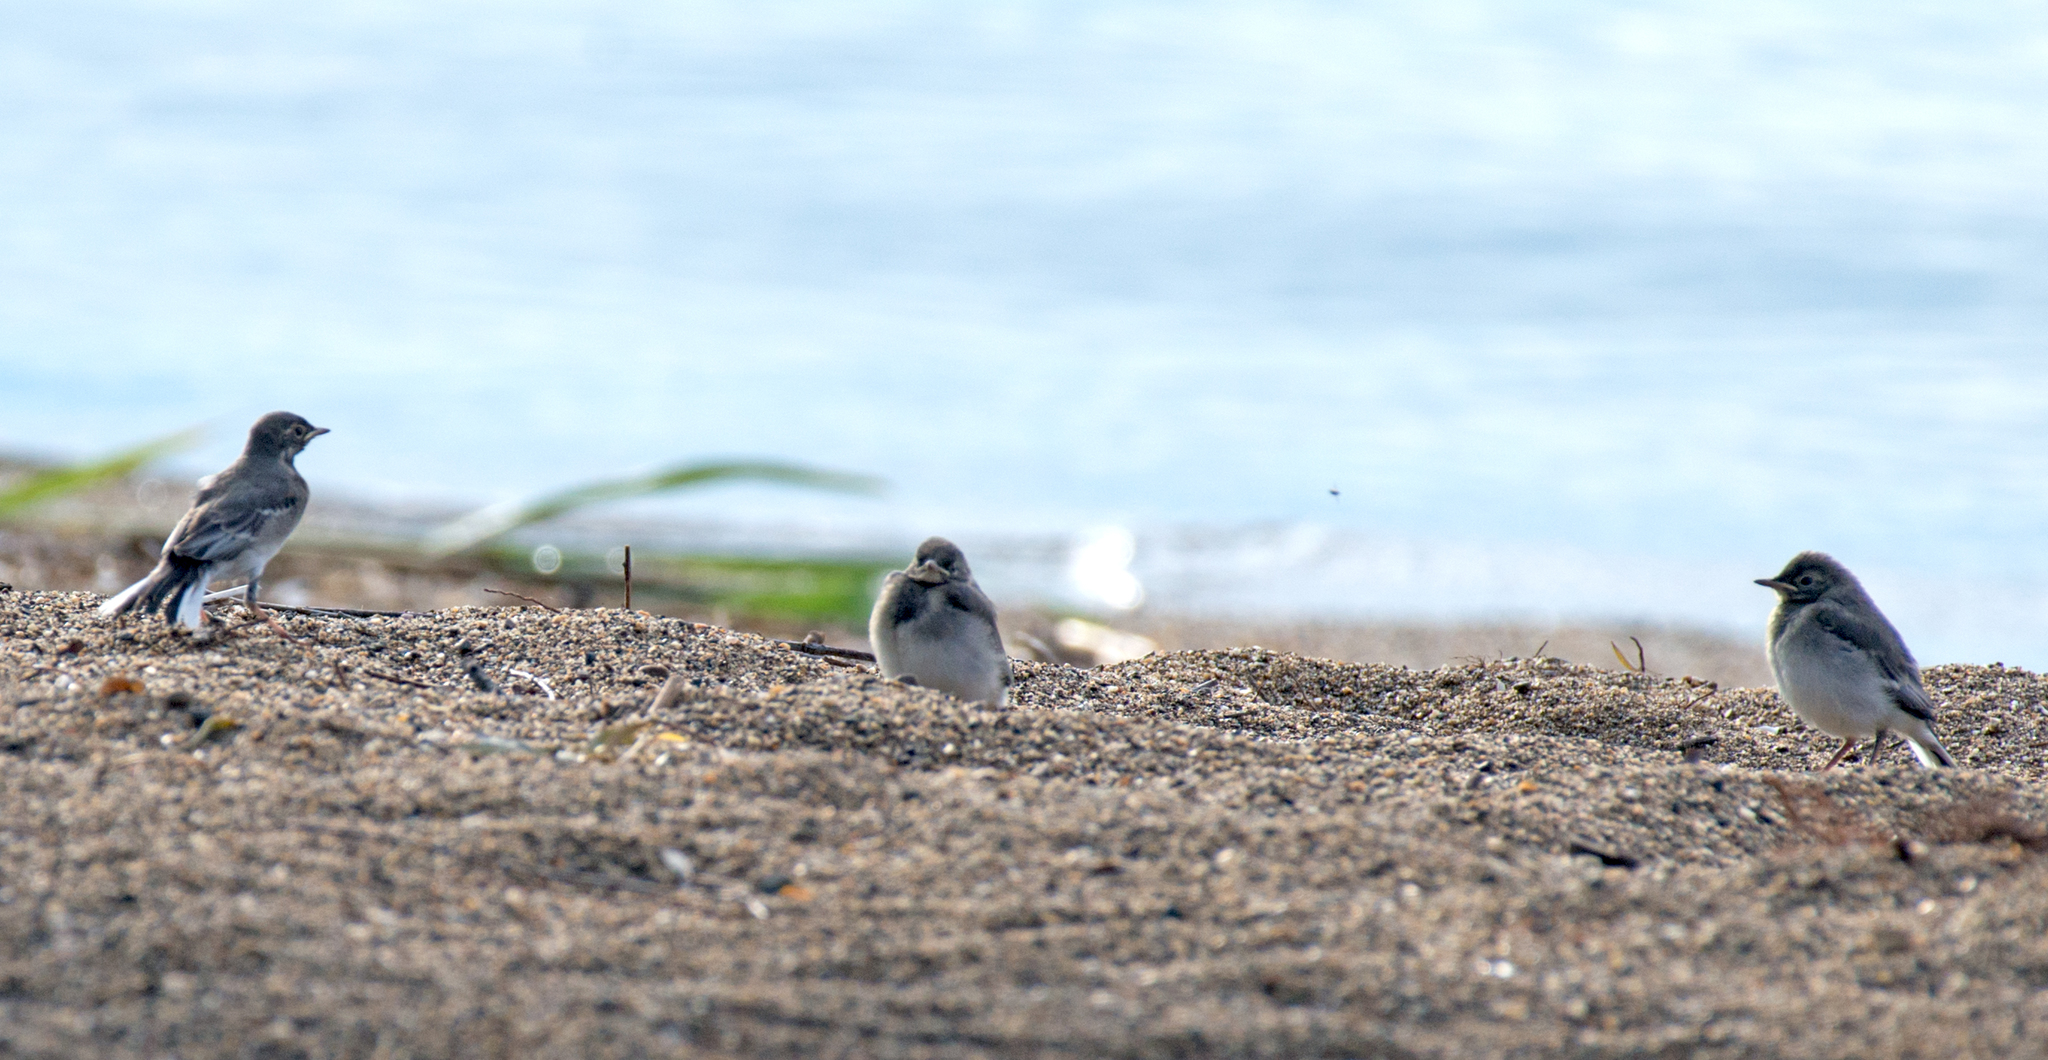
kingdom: Animalia
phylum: Chordata
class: Aves
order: Passeriformes
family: Motacillidae
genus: Motacilla
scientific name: Motacilla alba
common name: White wagtail
